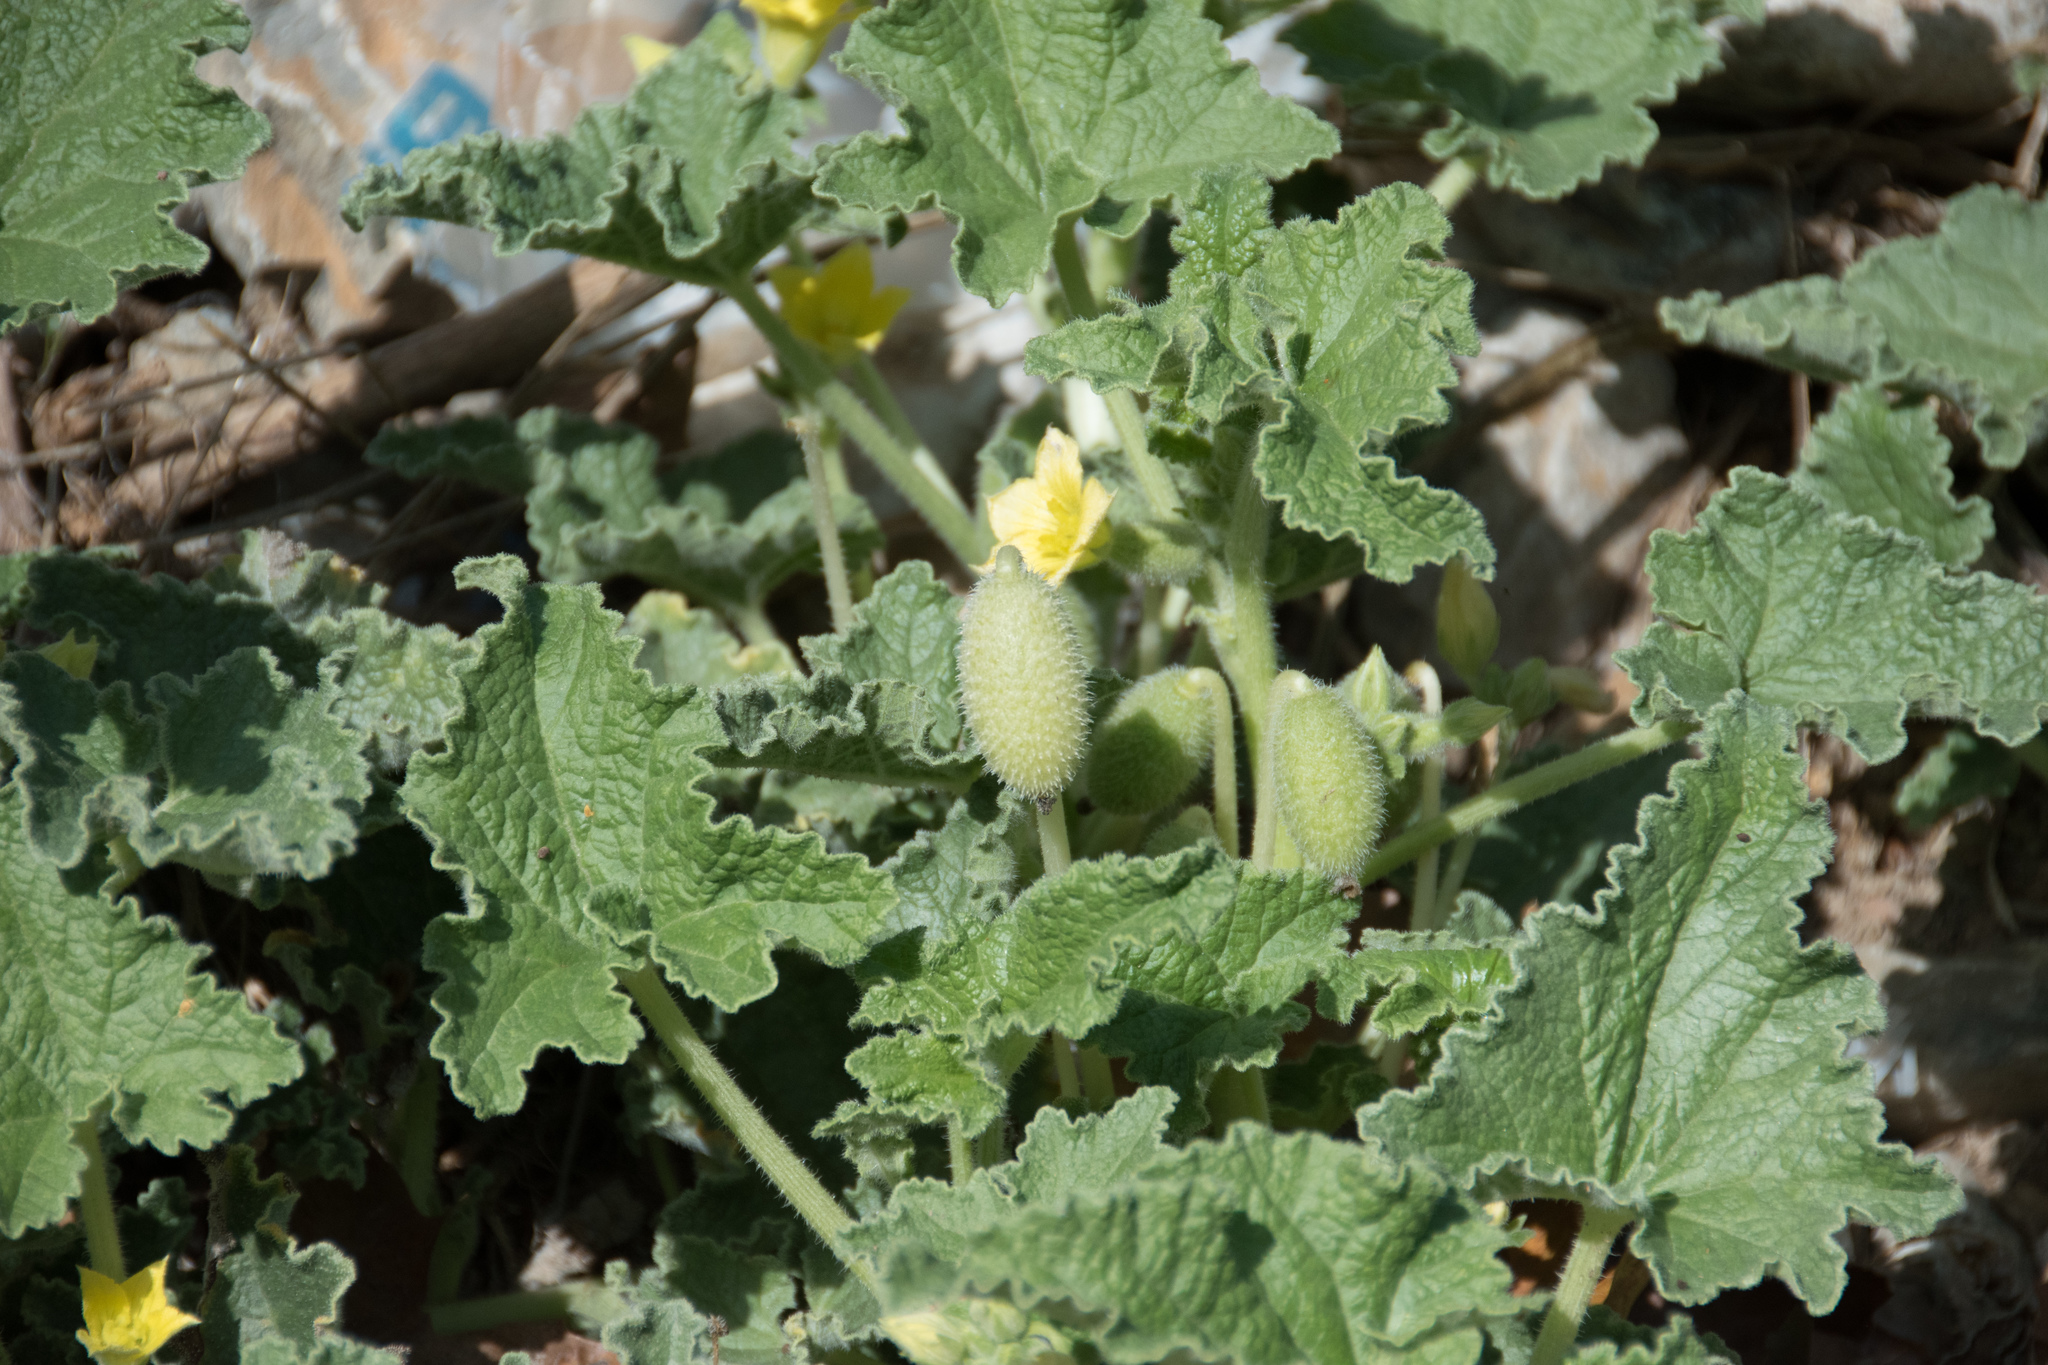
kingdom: Plantae
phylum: Tracheophyta
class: Magnoliopsida
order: Cucurbitales
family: Cucurbitaceae
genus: Ecballium
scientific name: Ecballium elaterium
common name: Squirting cucumber
